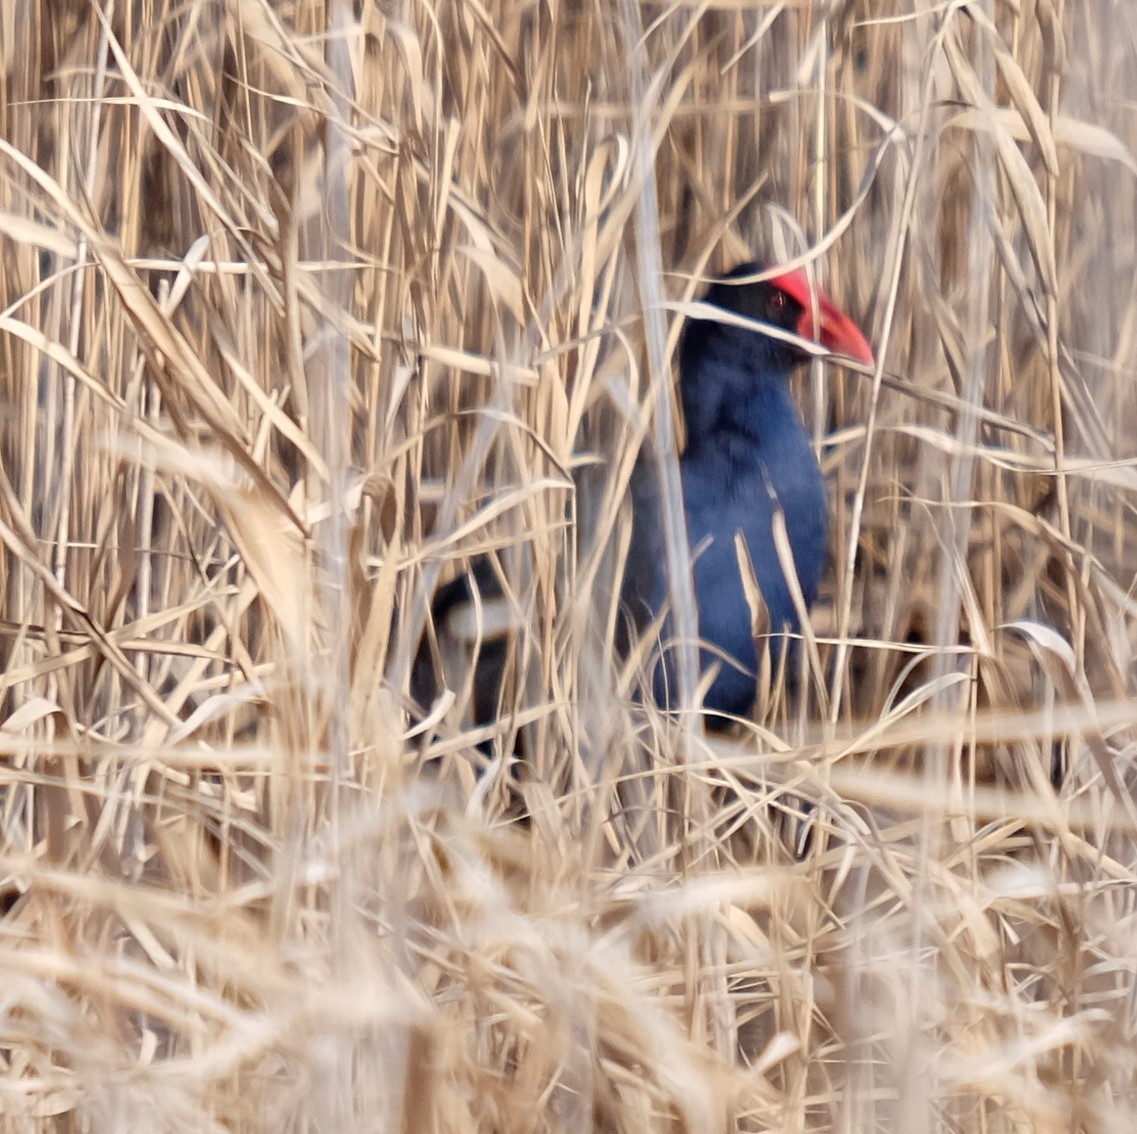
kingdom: Animalia
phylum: Chordata
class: Aves
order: Gruiformes
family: Rallidae
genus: Porphyrio
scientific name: Porphyrio melanotus
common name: Australasian swamphen
